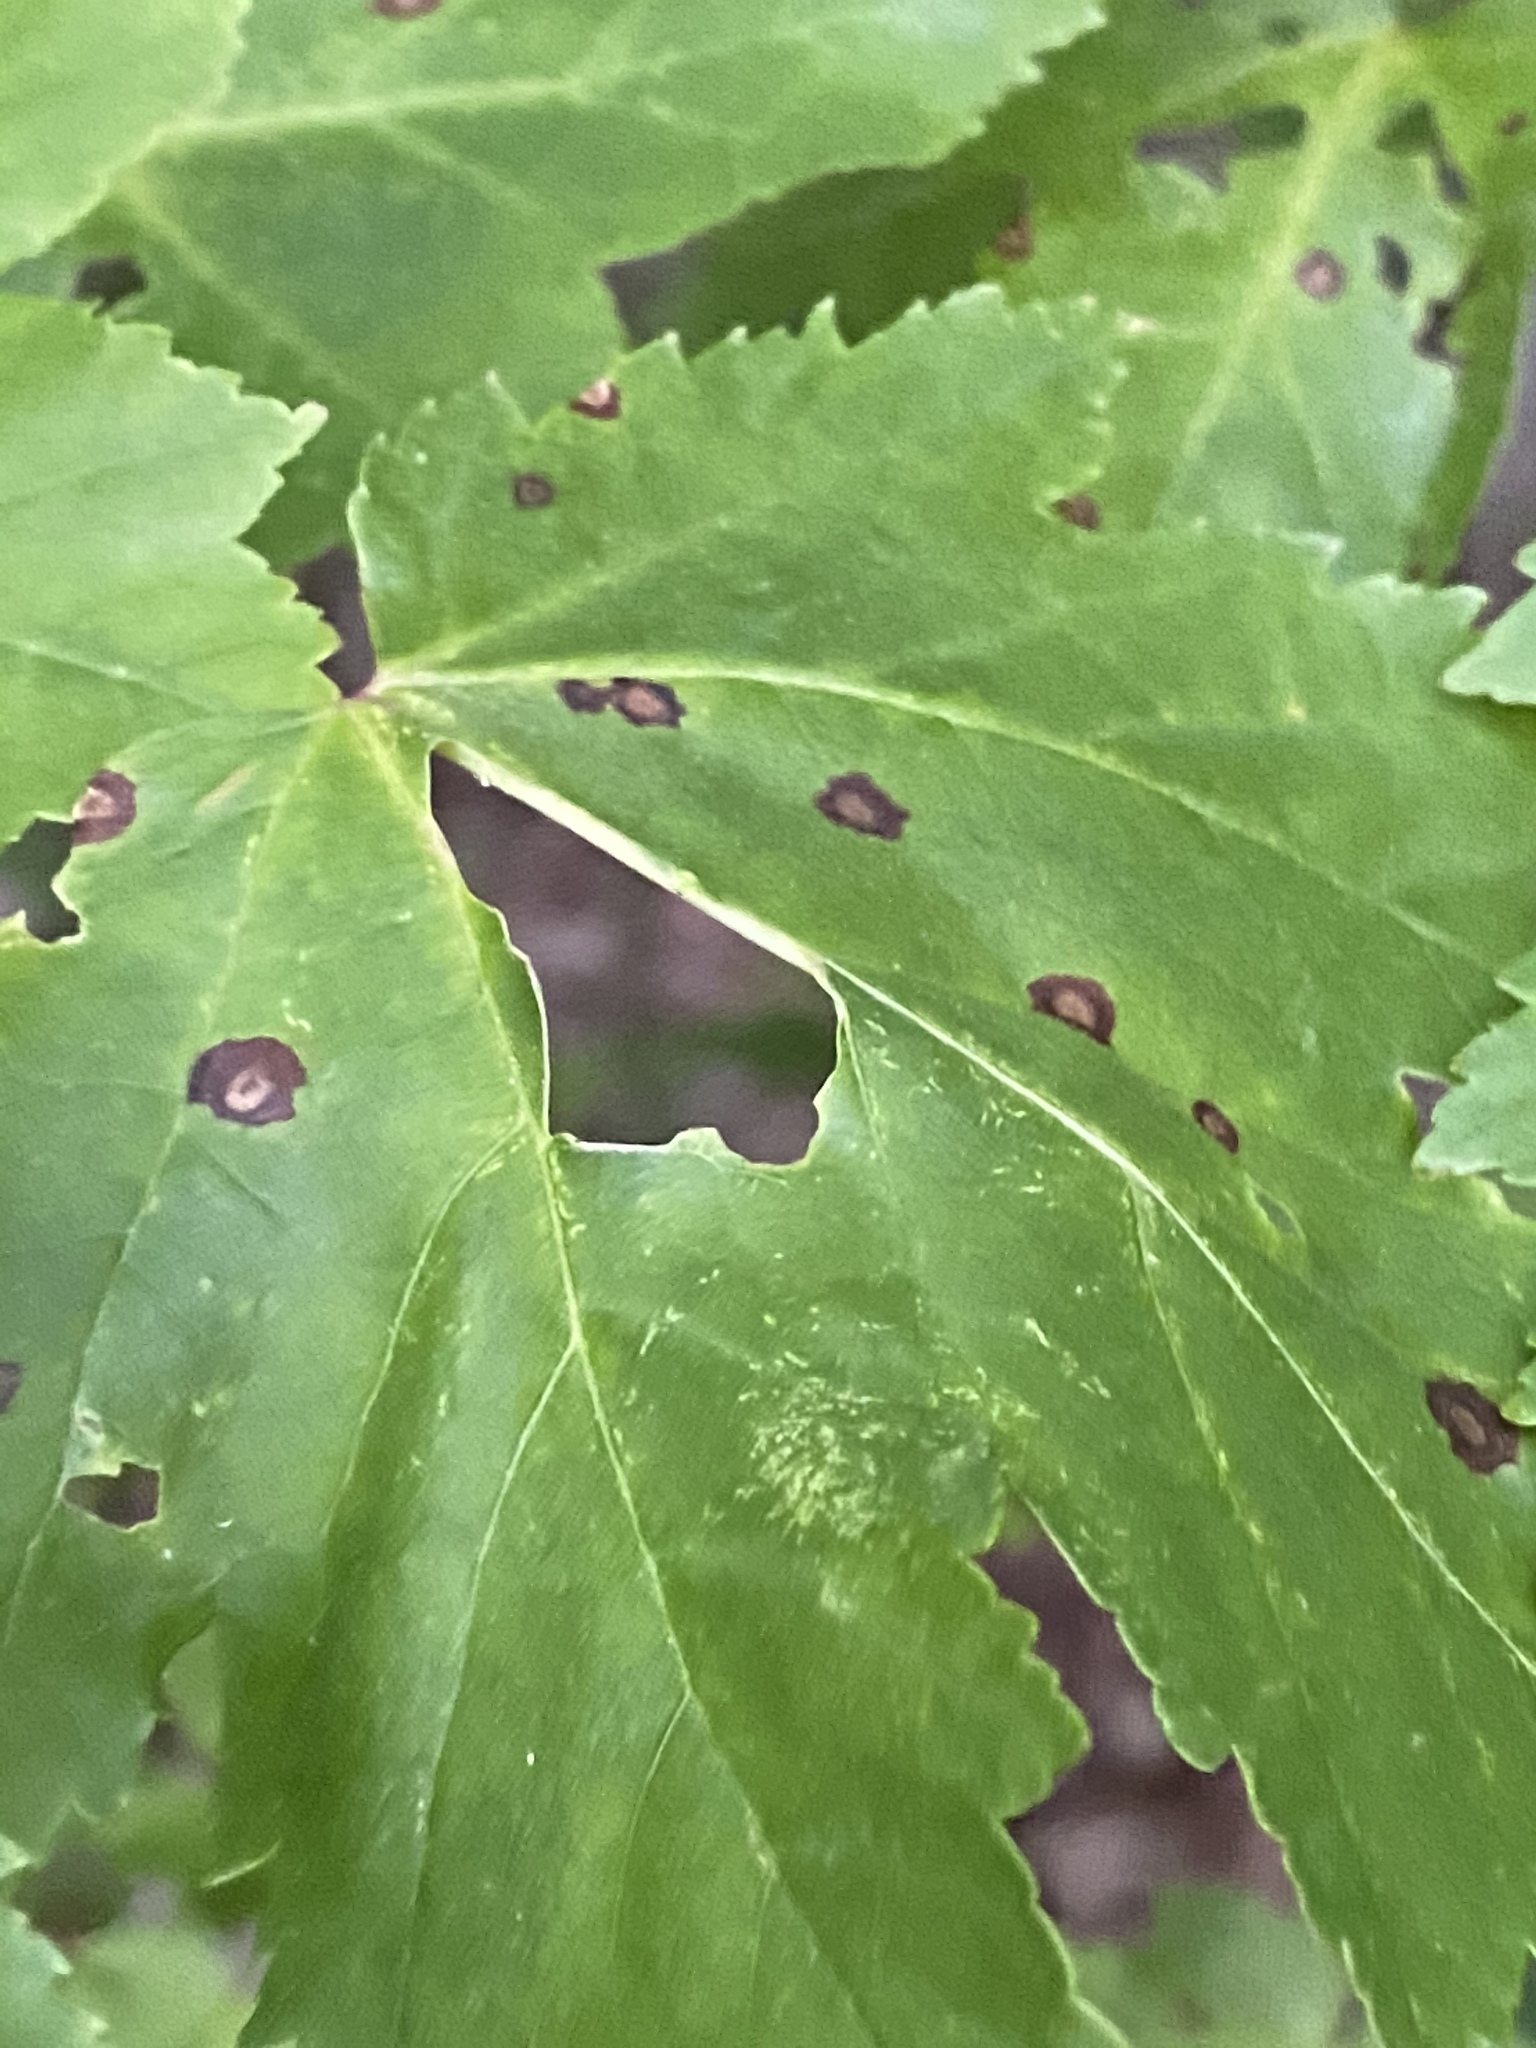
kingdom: Animalia
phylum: Arthropoda
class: Insecta
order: Diptera
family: Cecidomyiidae
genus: Acericecis
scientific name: Acericecis ocellaris
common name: Ocellate gall midge
